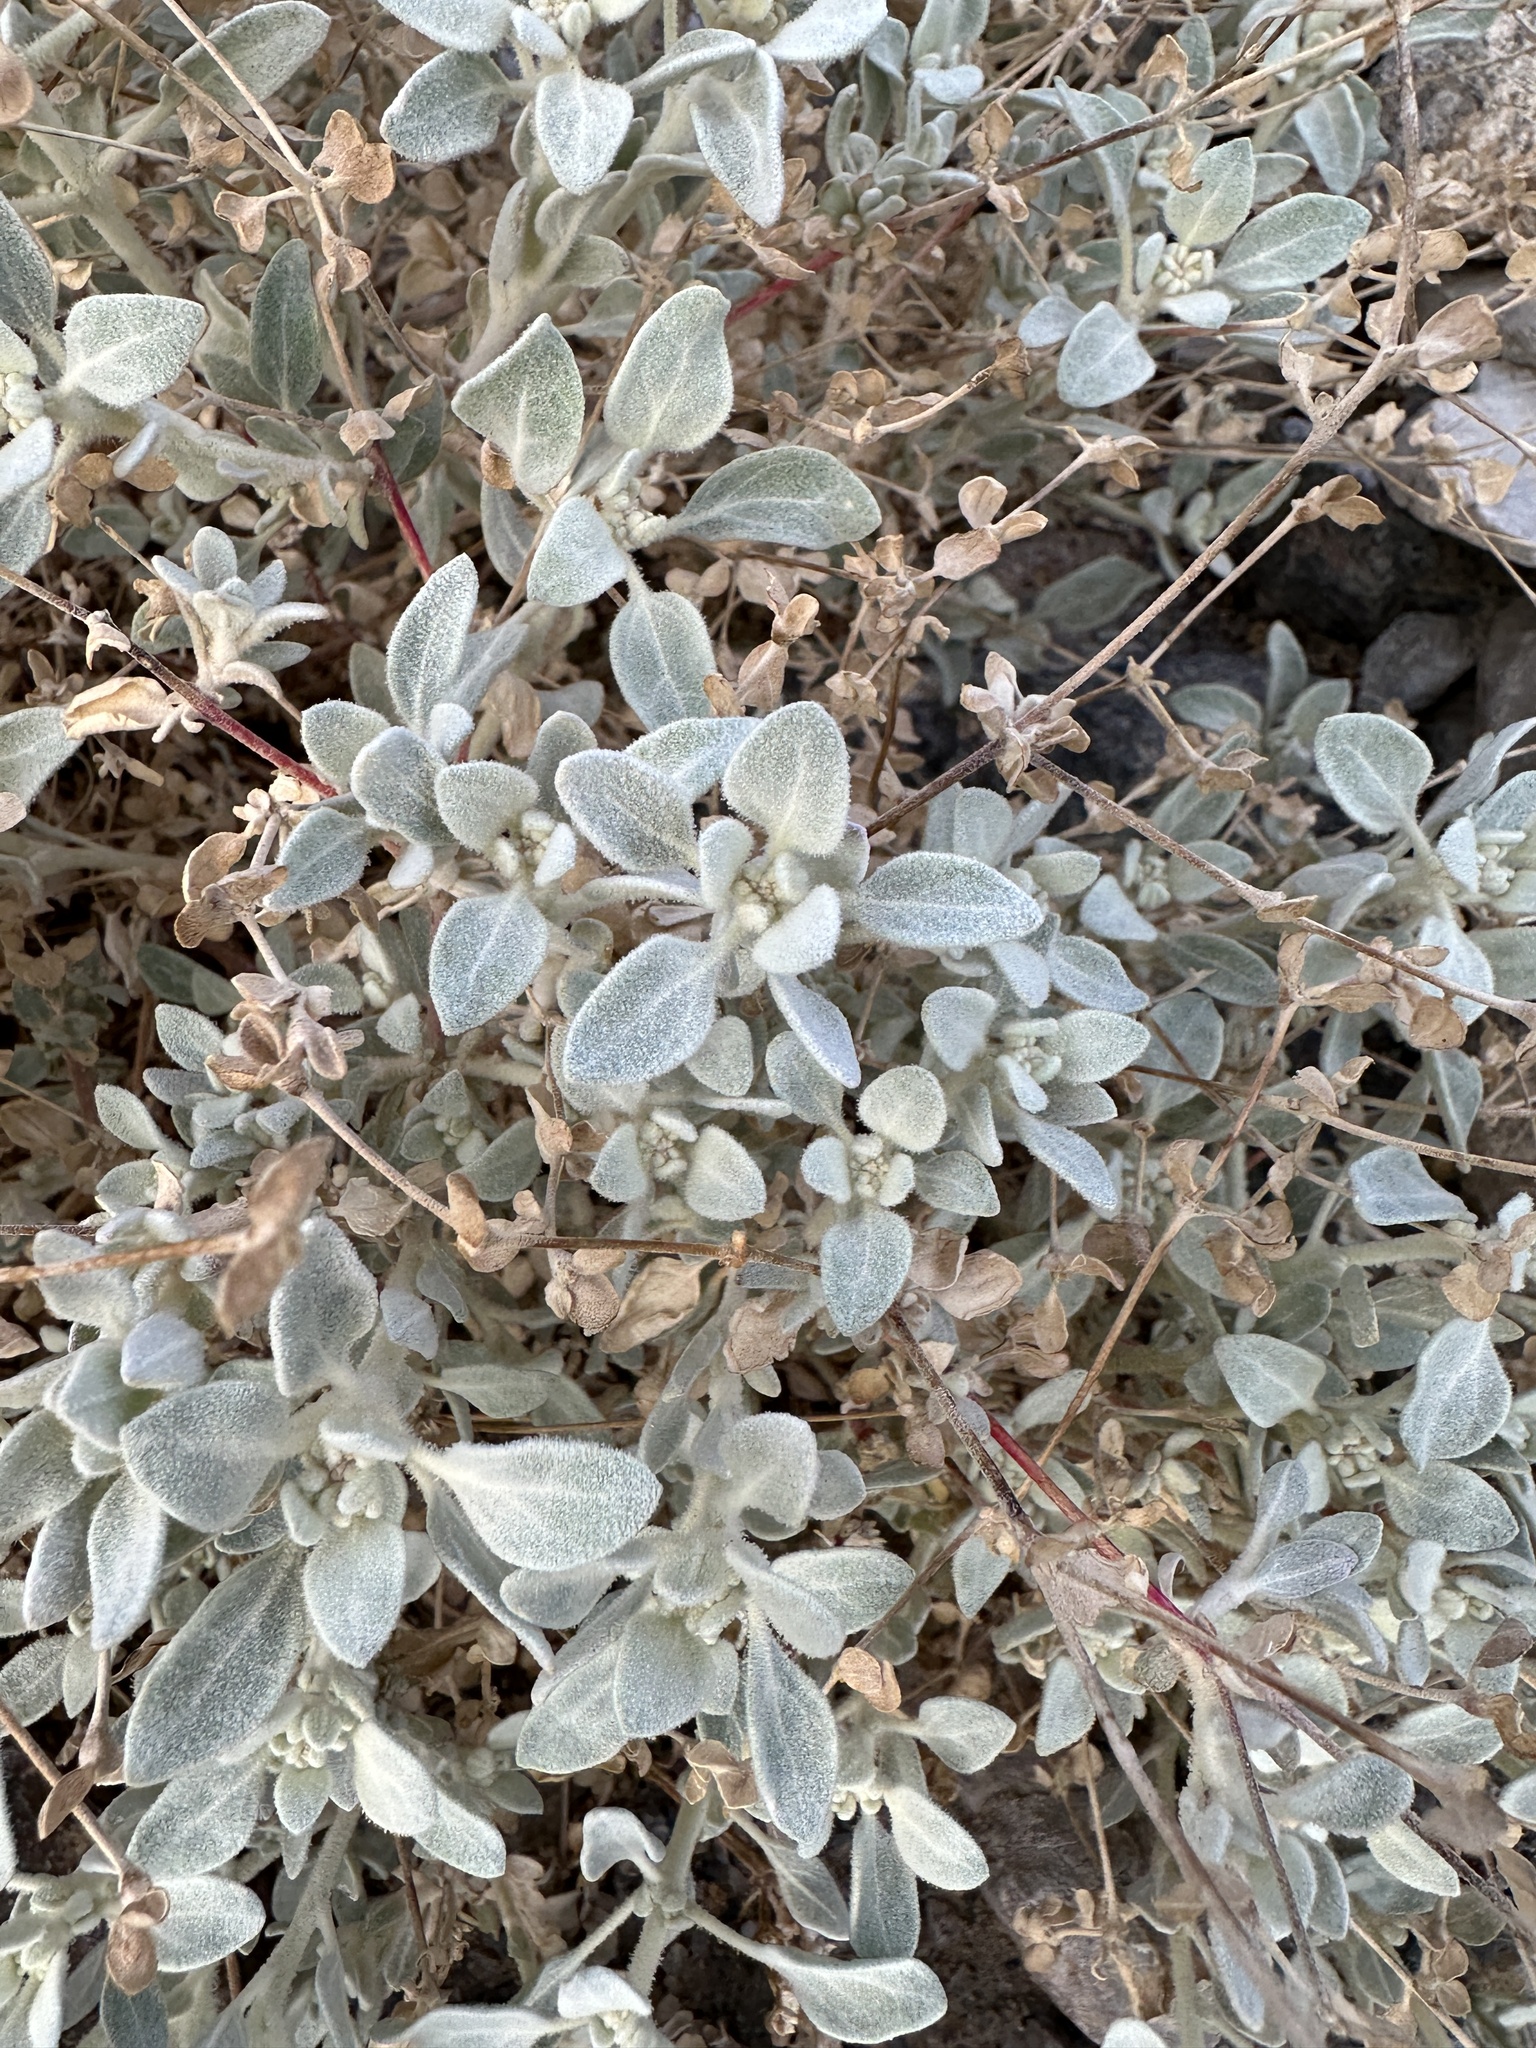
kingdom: Plantae
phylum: Tracheophyta
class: Magnoliopsida
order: Caryophyllales
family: Amaranthaceae
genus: Tidestromia
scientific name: Tidestromia suffruticosa
